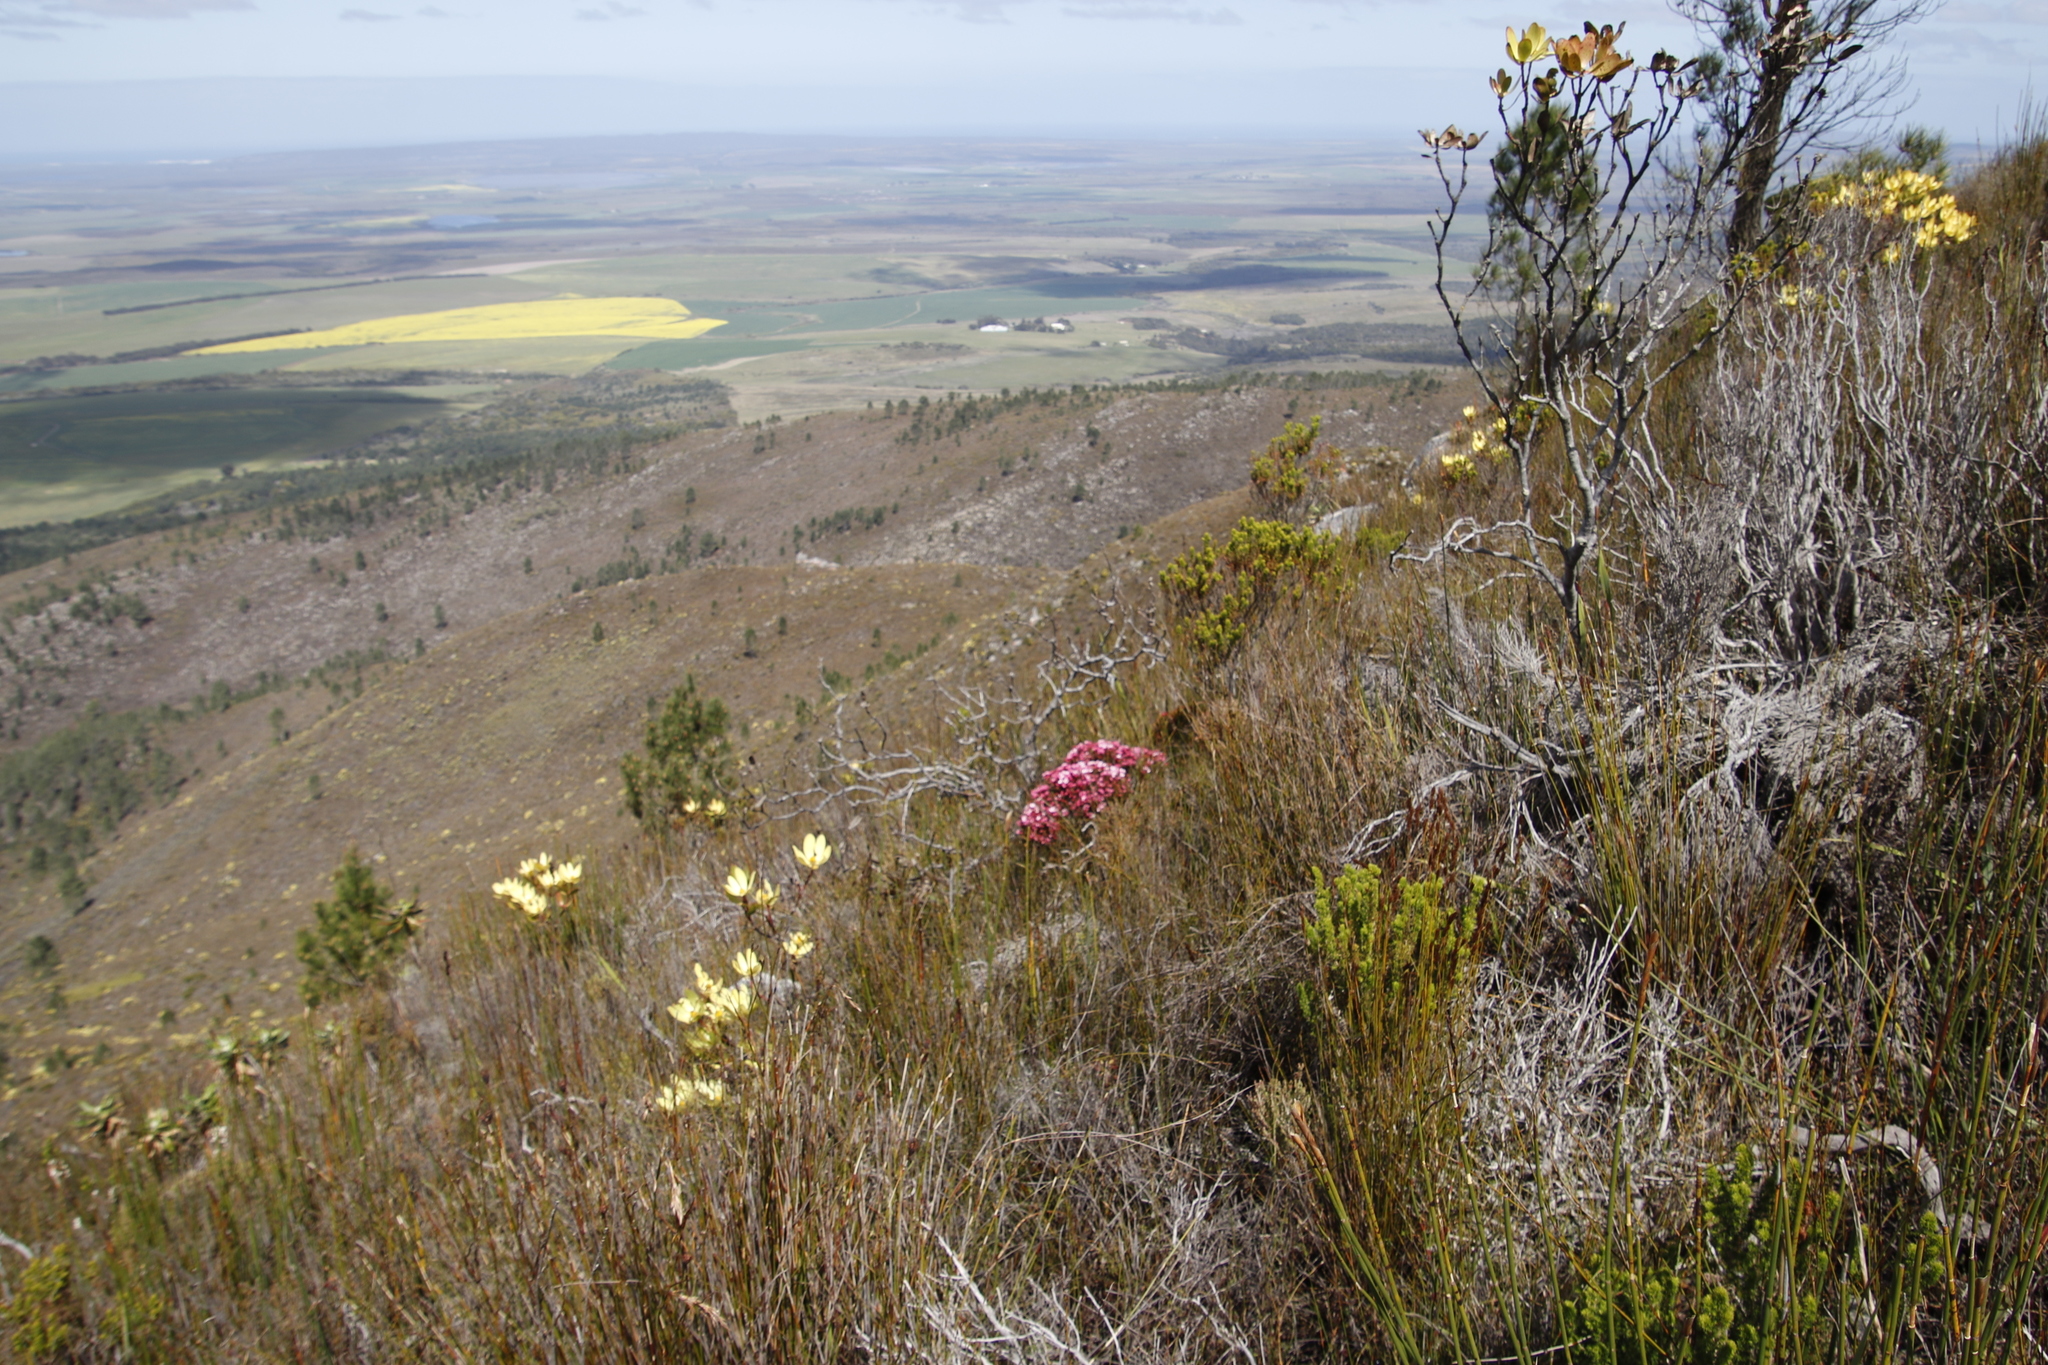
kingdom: Plantae
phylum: Tracheophyta
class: Magnoliopsida
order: Myrtales
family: Penaeaceae
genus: Brachysiphon
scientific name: Brachysiphon acutus
